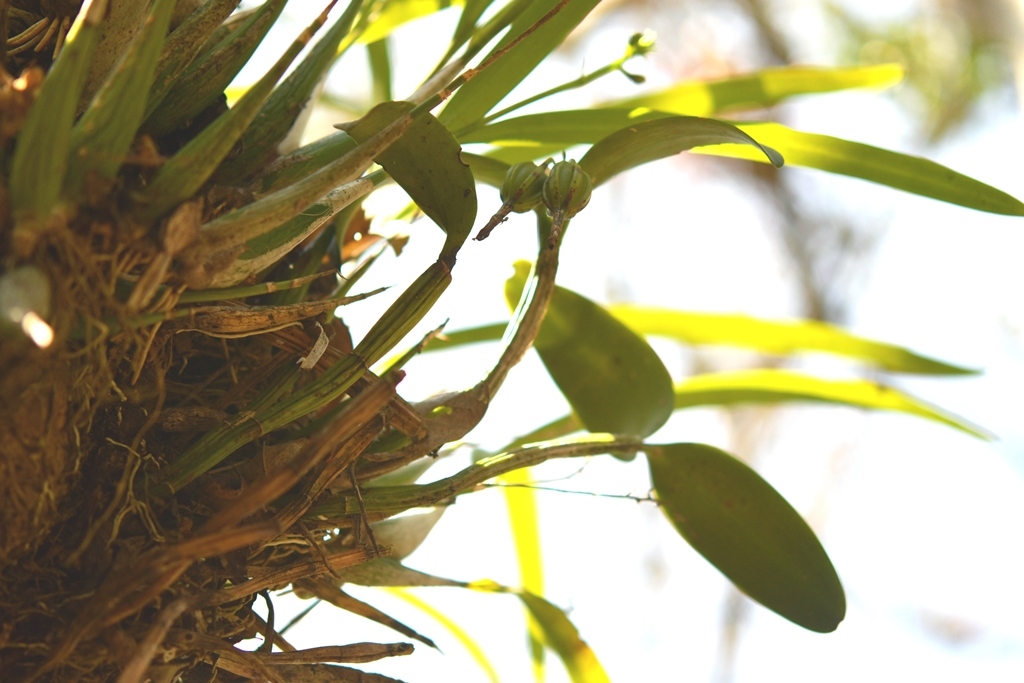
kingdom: Plantae
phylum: Tracheophyta
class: Liliopsida
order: Asparagales
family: Orchidaceae
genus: Guarianthe
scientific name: Guarianthe aurantiaca
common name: Orange cattleya
